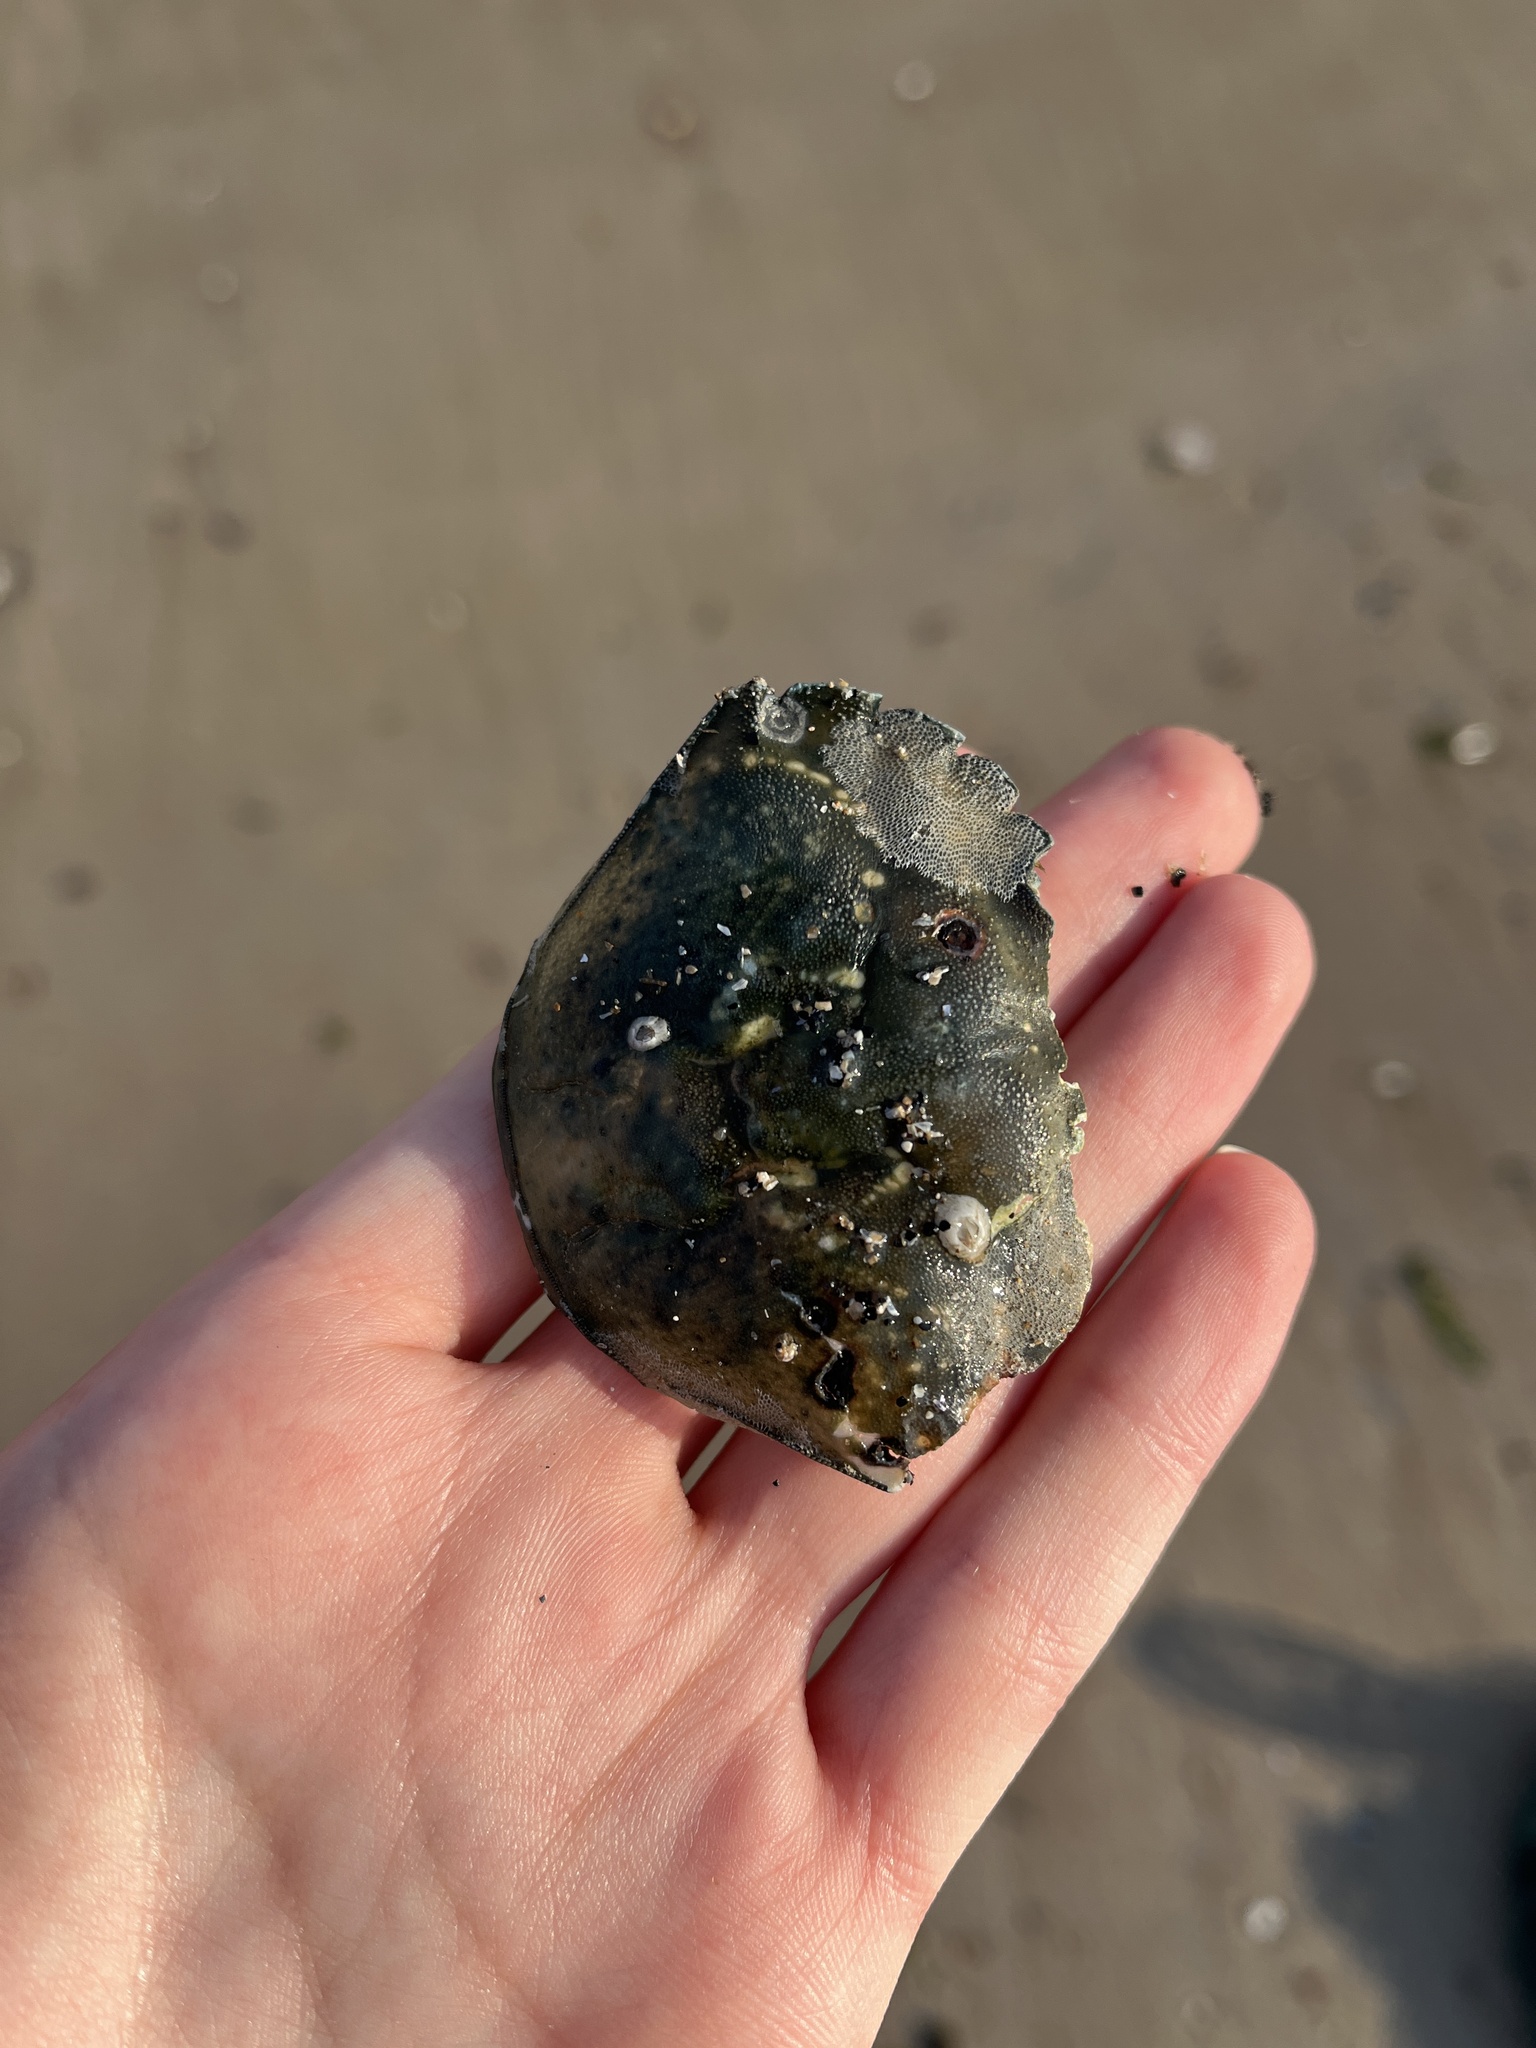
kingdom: Animalia
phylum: Arthropoda
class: Malacostraca
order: Decapoda
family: Carcinidae
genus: Carcinus
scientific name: Carcinus maenas
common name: European green crab
